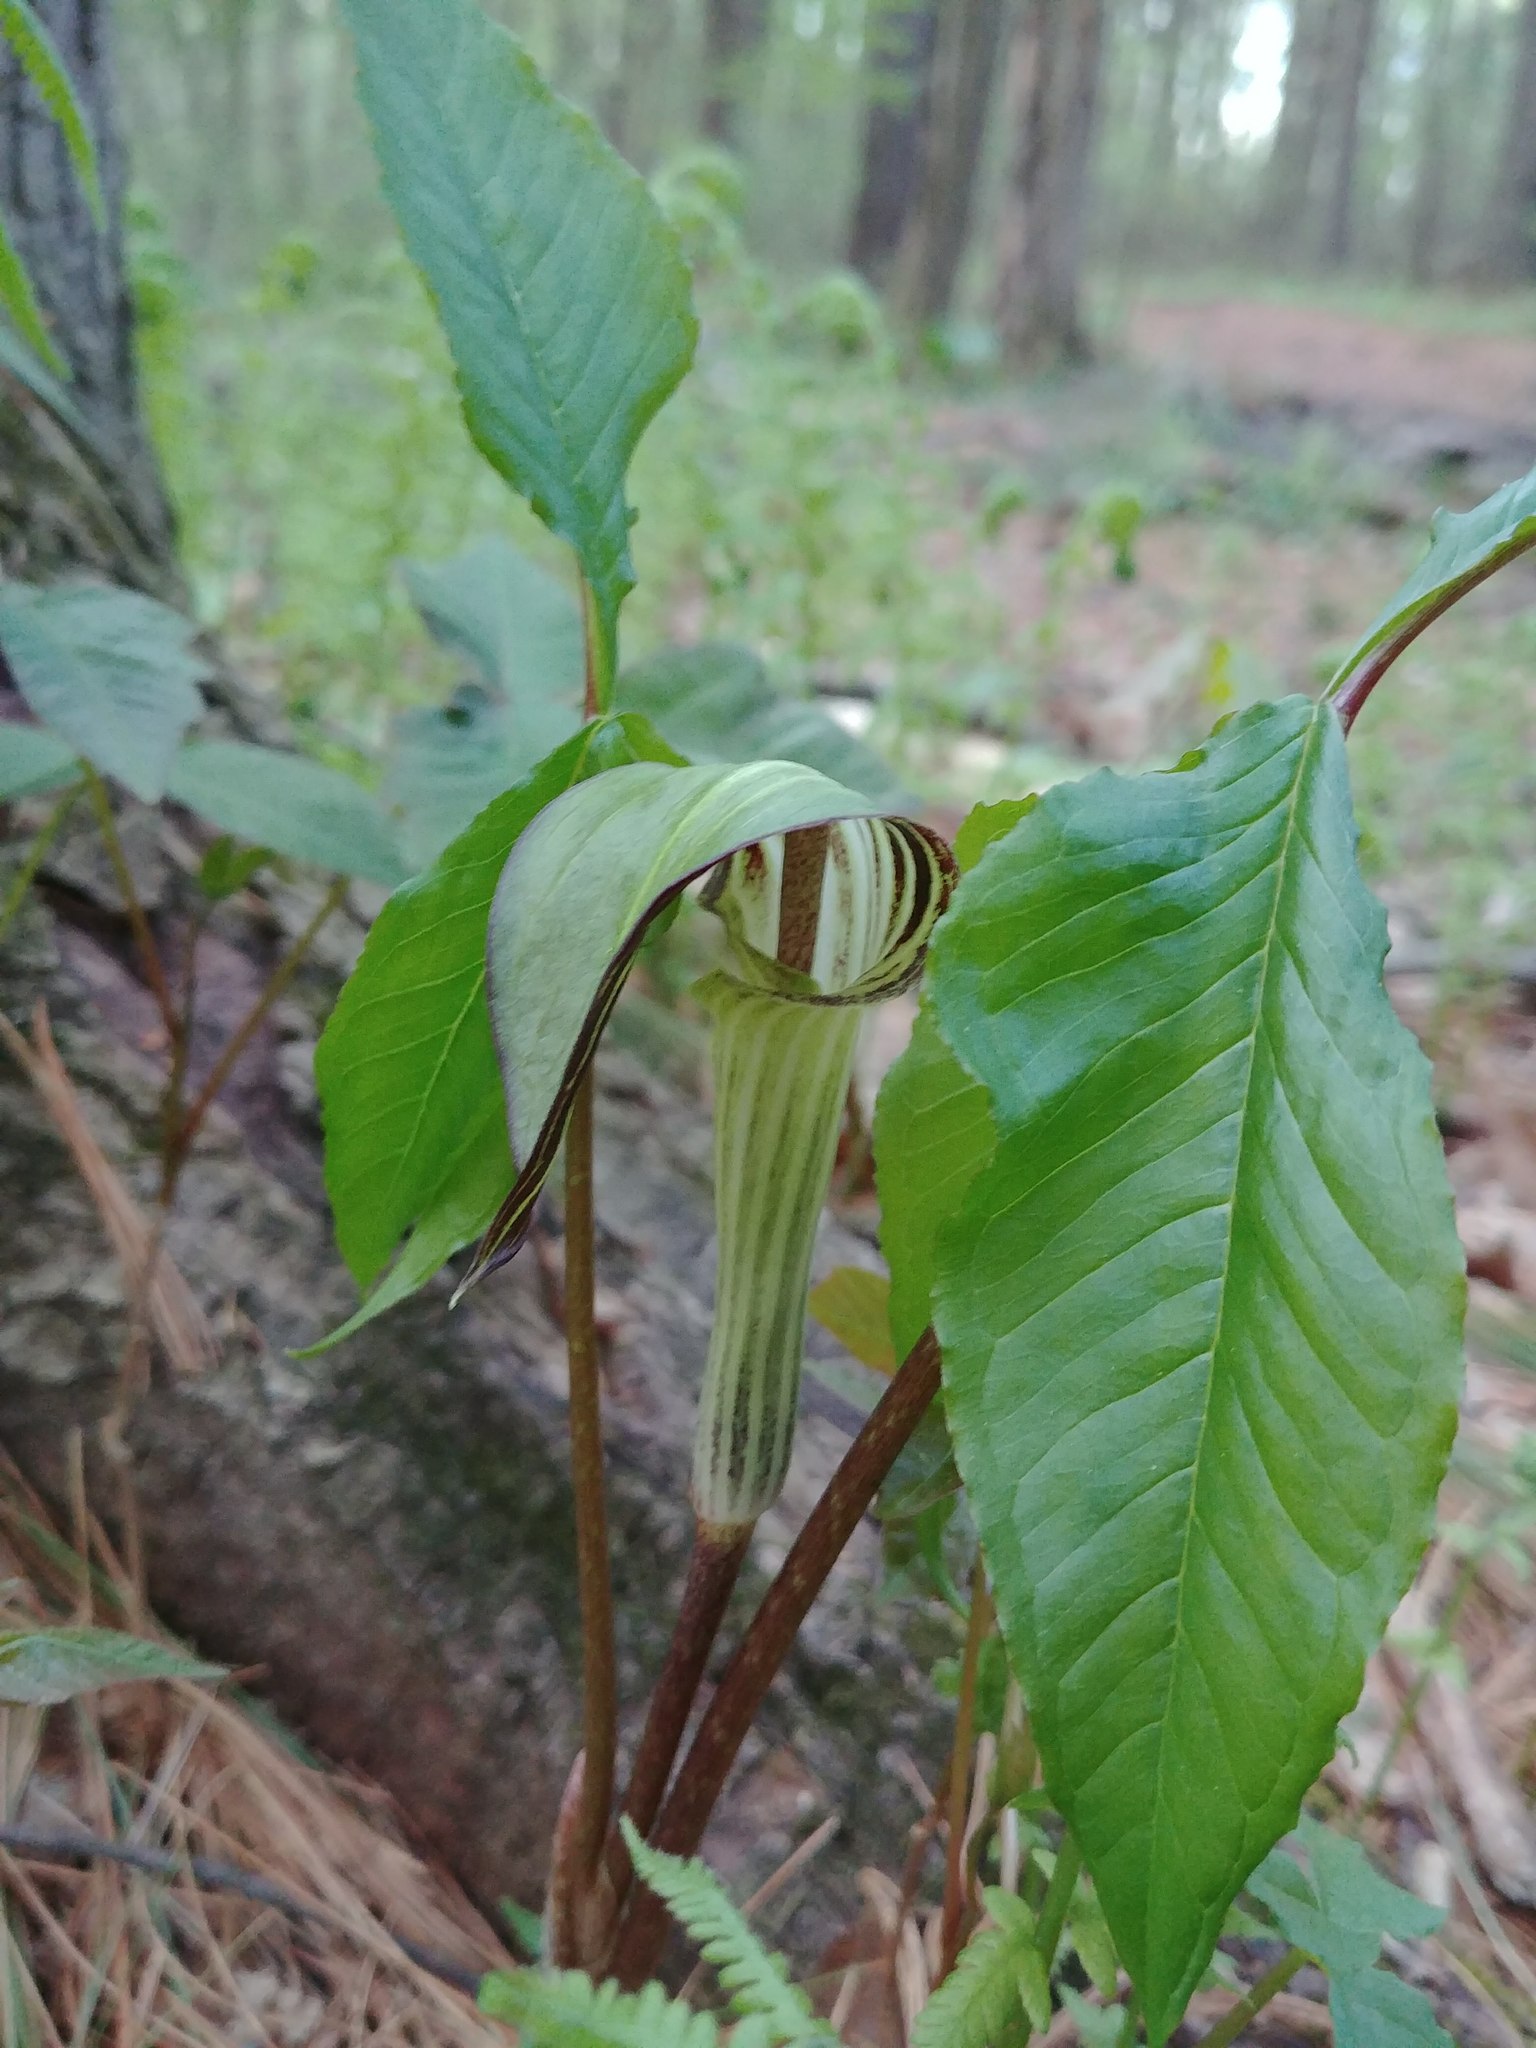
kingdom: Plantae
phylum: Tracheophyta
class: Liliopsida
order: Alismatales
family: Araceae
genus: Arisaema
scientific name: Arisaema triphyllum
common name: Jack-in-the-pulpit
